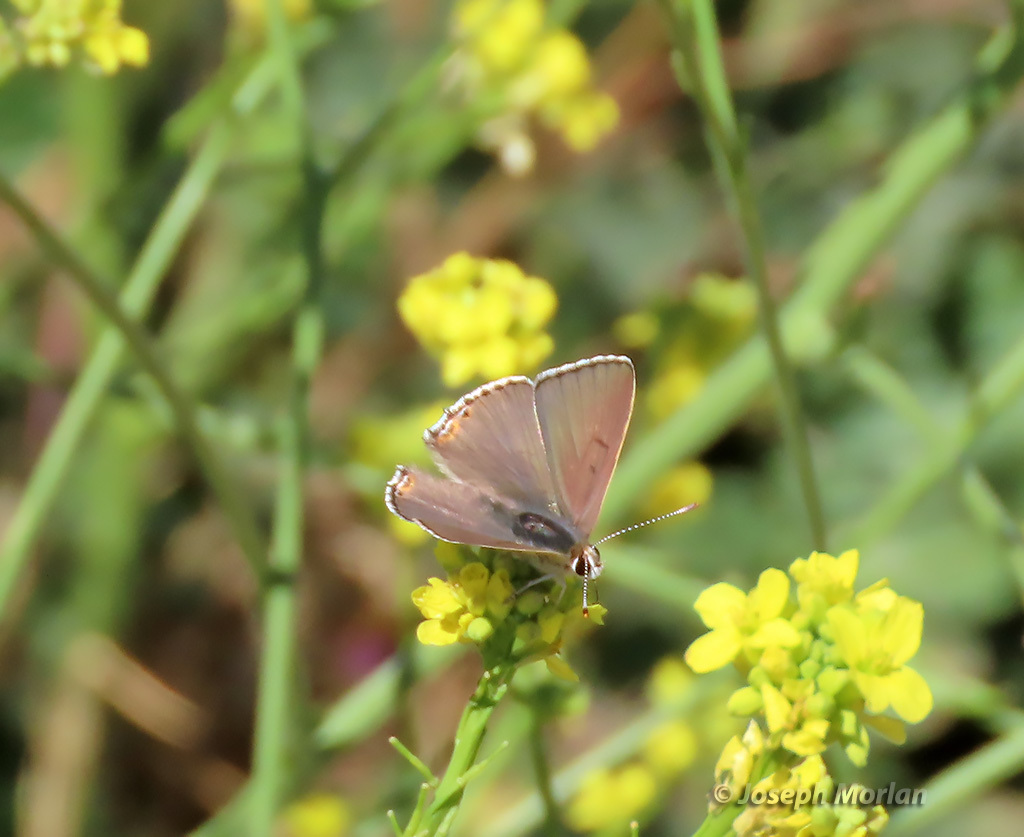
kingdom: Animalia
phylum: Arthropoda
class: Insecta
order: Lepidoptera
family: Lycaenidae
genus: Tharsalea
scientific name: Tharsalea xanthoides
